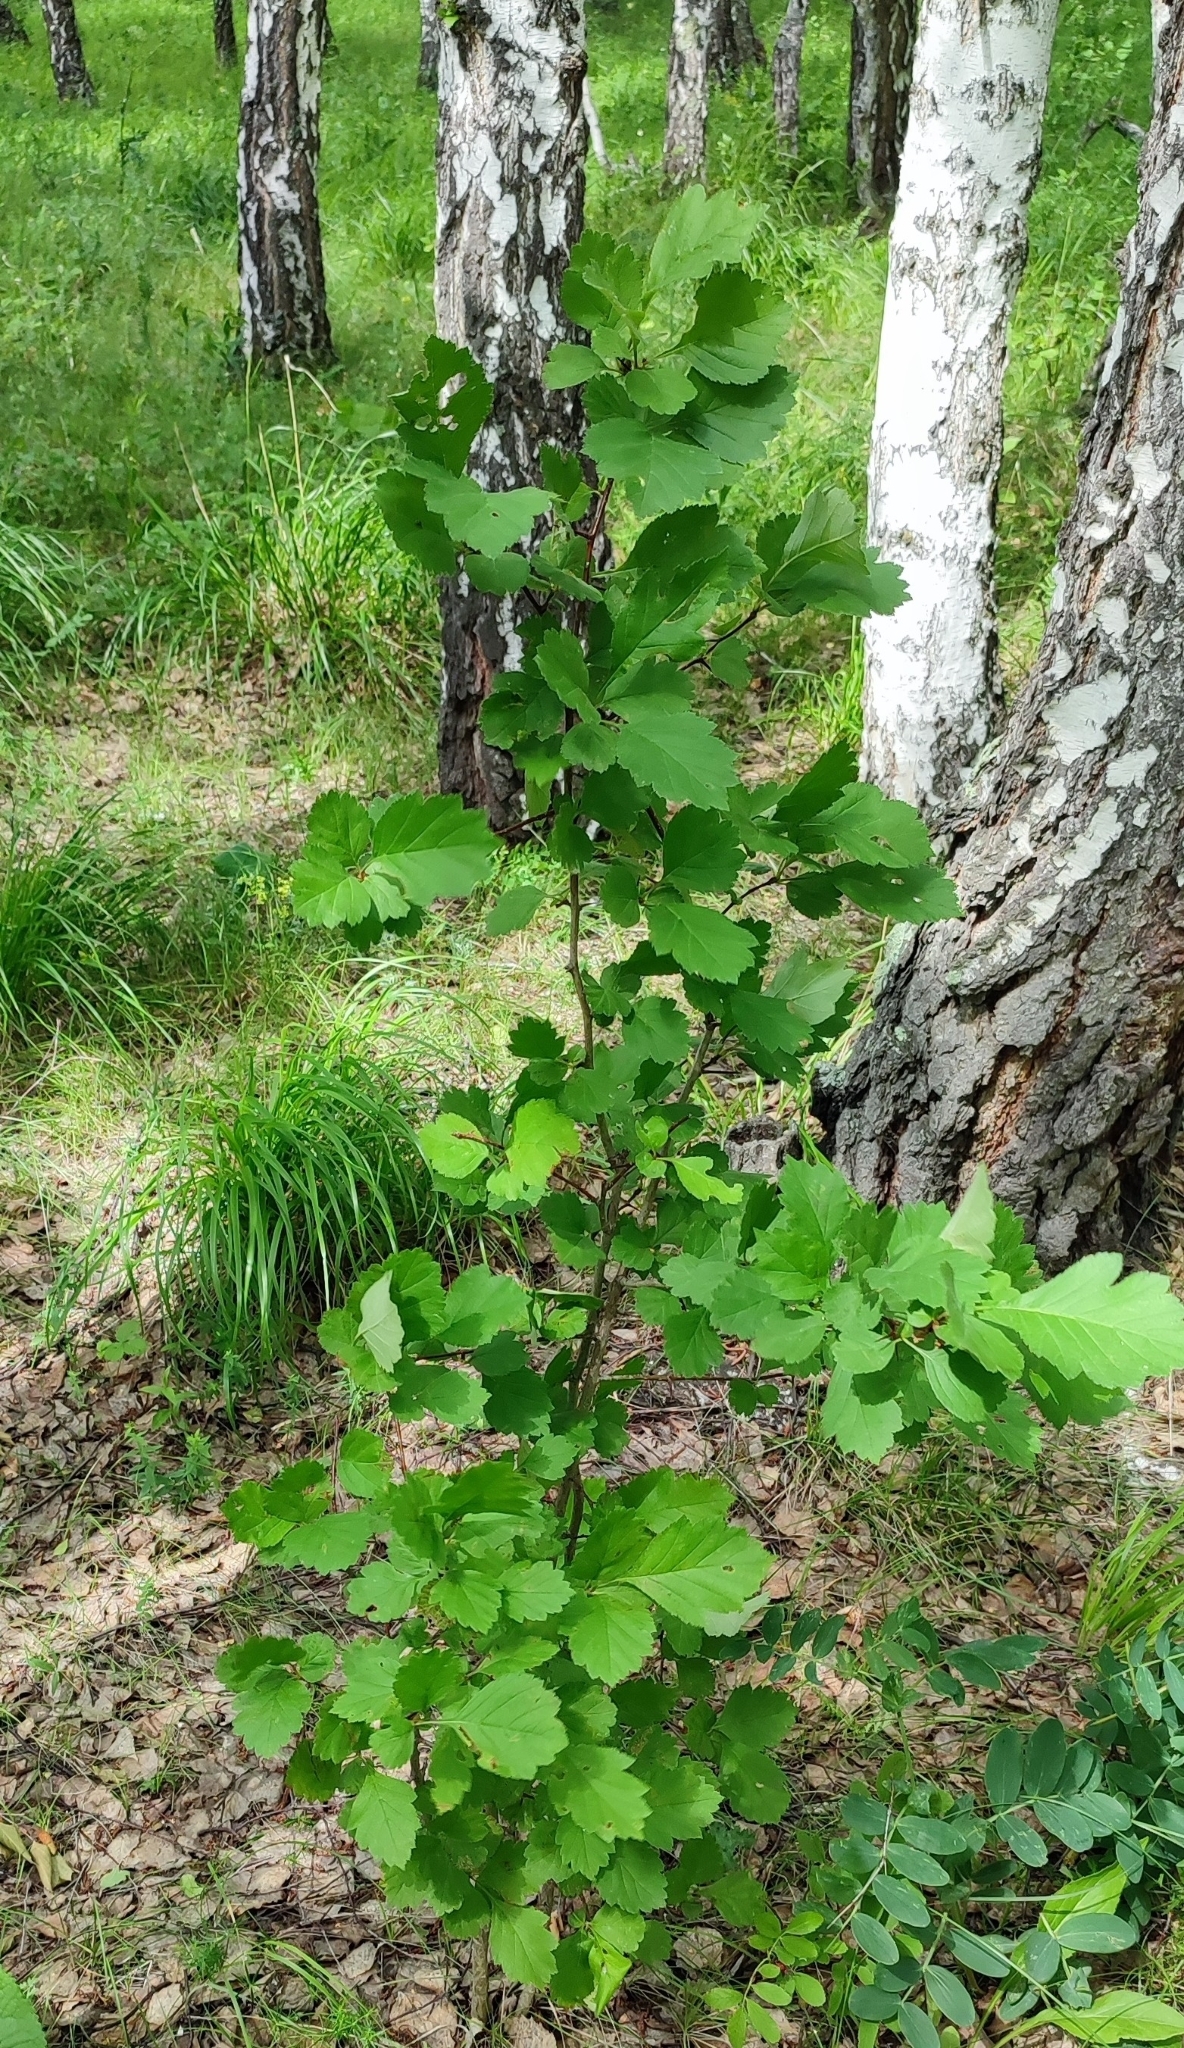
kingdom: Plantae
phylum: Tracheophyta
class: Magnoliopsida
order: Rosales
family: Rosaceae
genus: Crataegus
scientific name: Crataegus sanguinea
